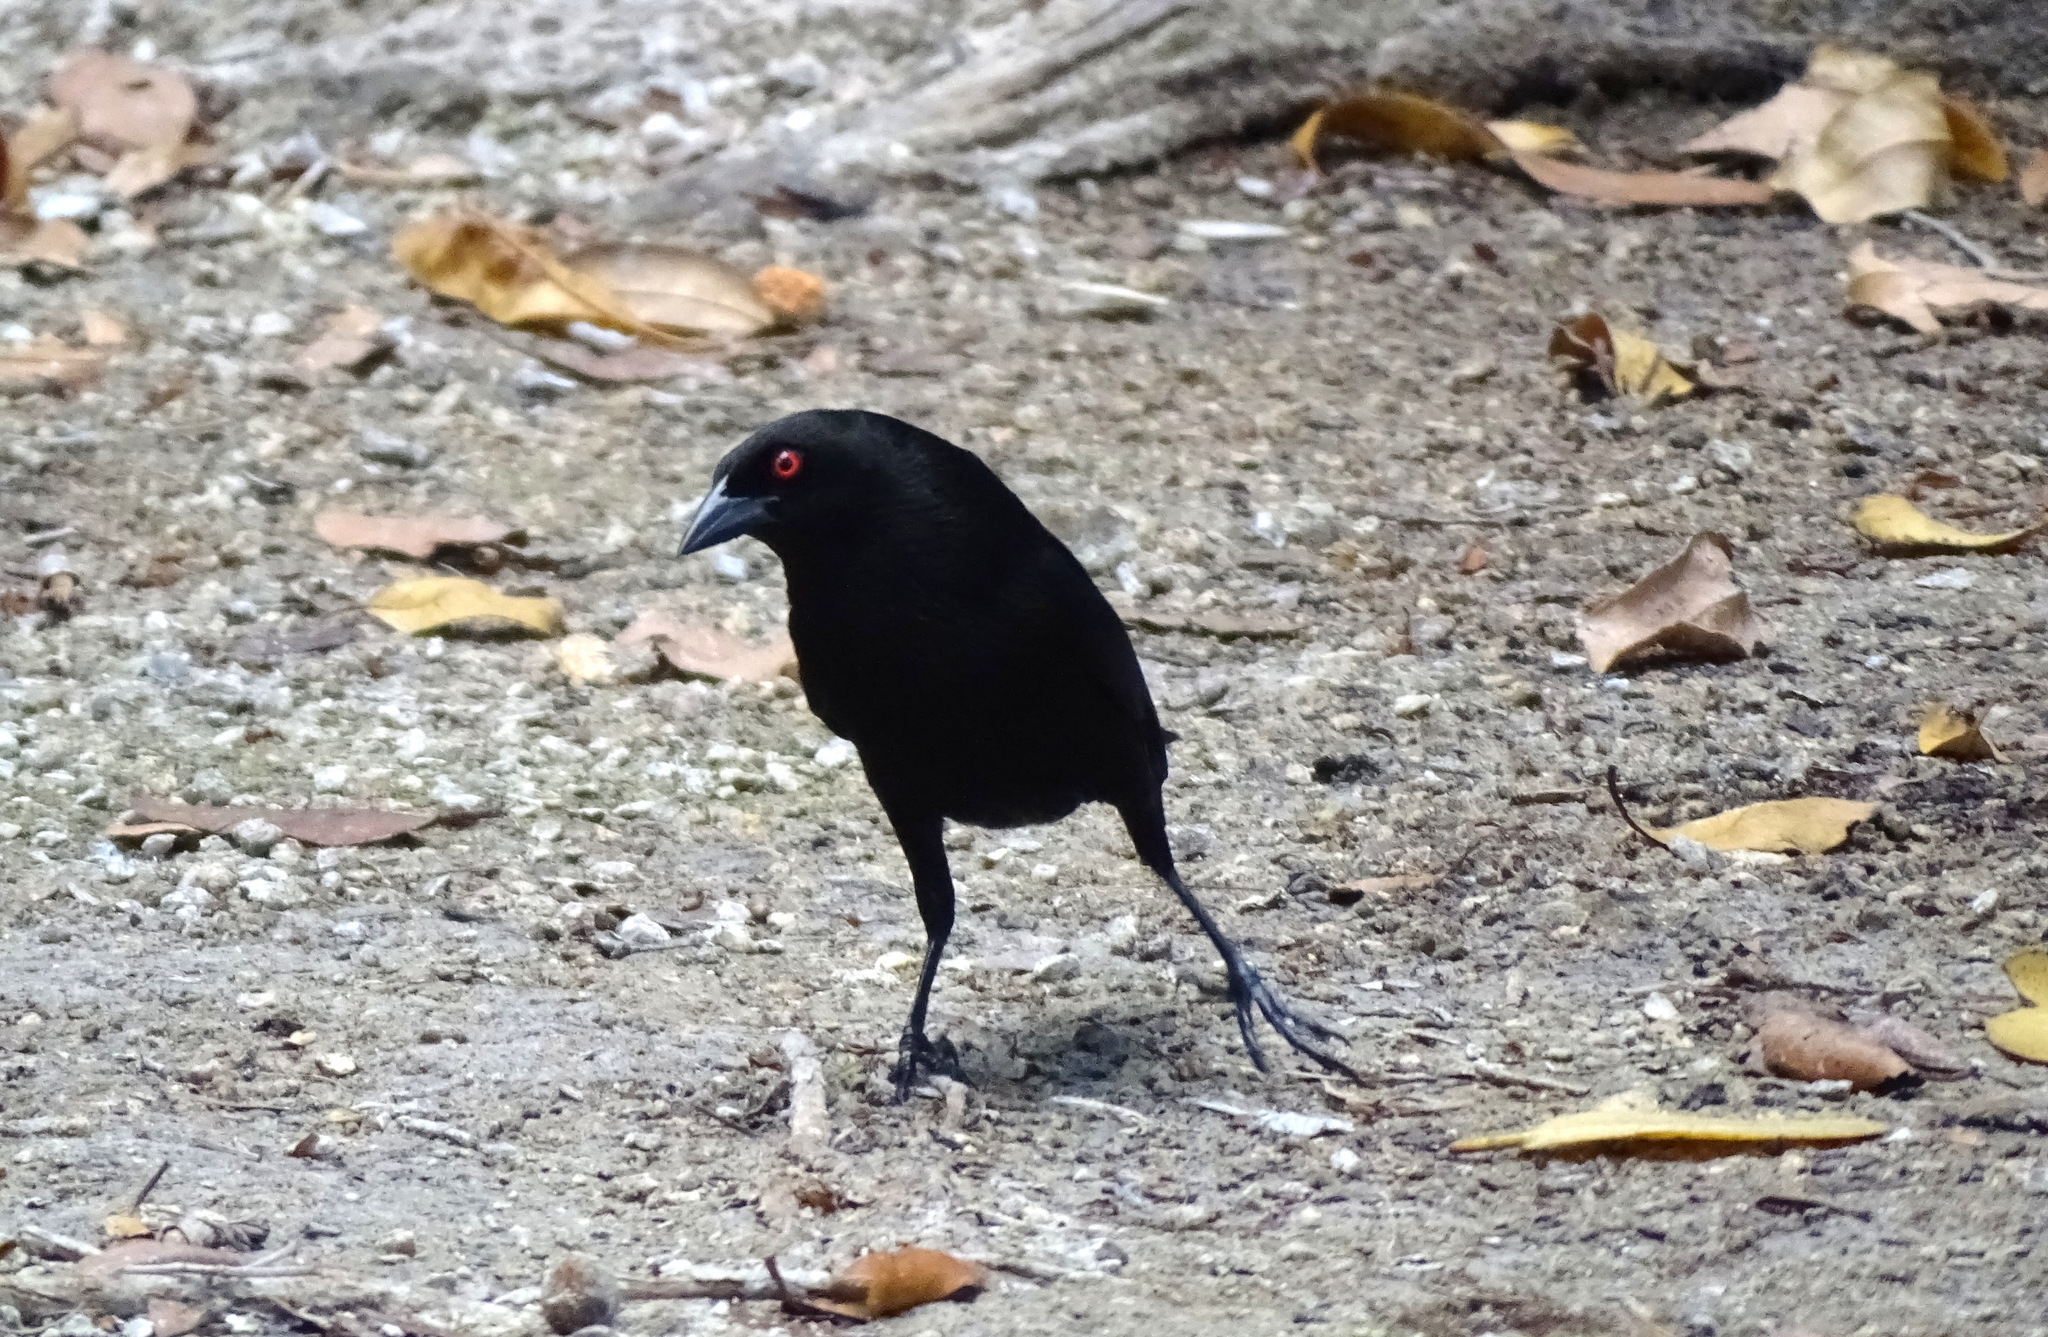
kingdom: Animalia
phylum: Chordata
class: Aves
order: Passeriformes
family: Icteridae
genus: Molothrus
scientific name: Molothrus aeneus
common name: Bronzed cowbird
